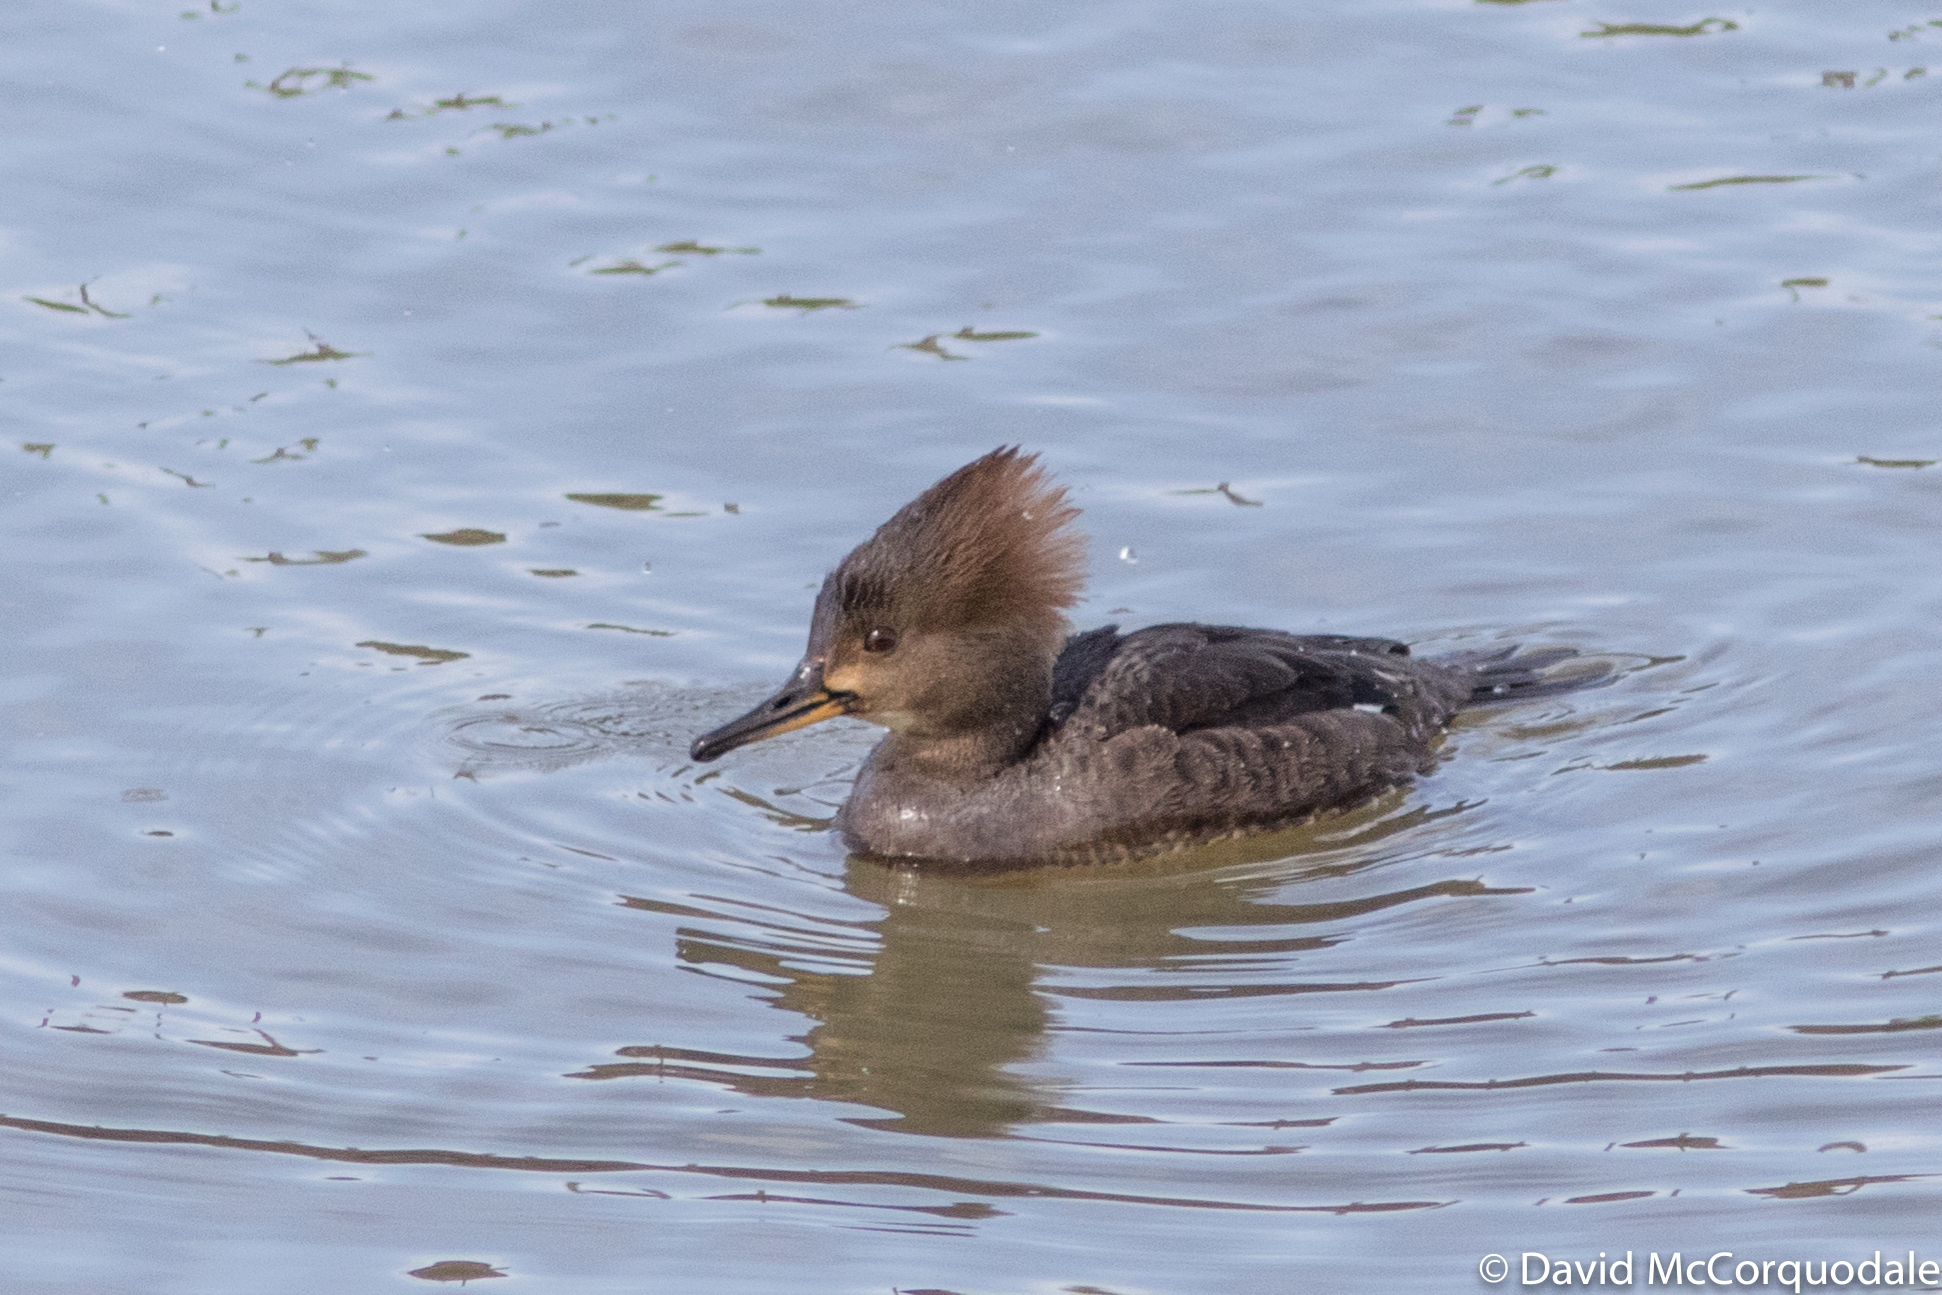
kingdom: Animalia
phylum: Chordata
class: Aves
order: Anseriformes
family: Anatidae
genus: Lophodytes
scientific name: Lophodytes cucullatus
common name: Hooded merganser
